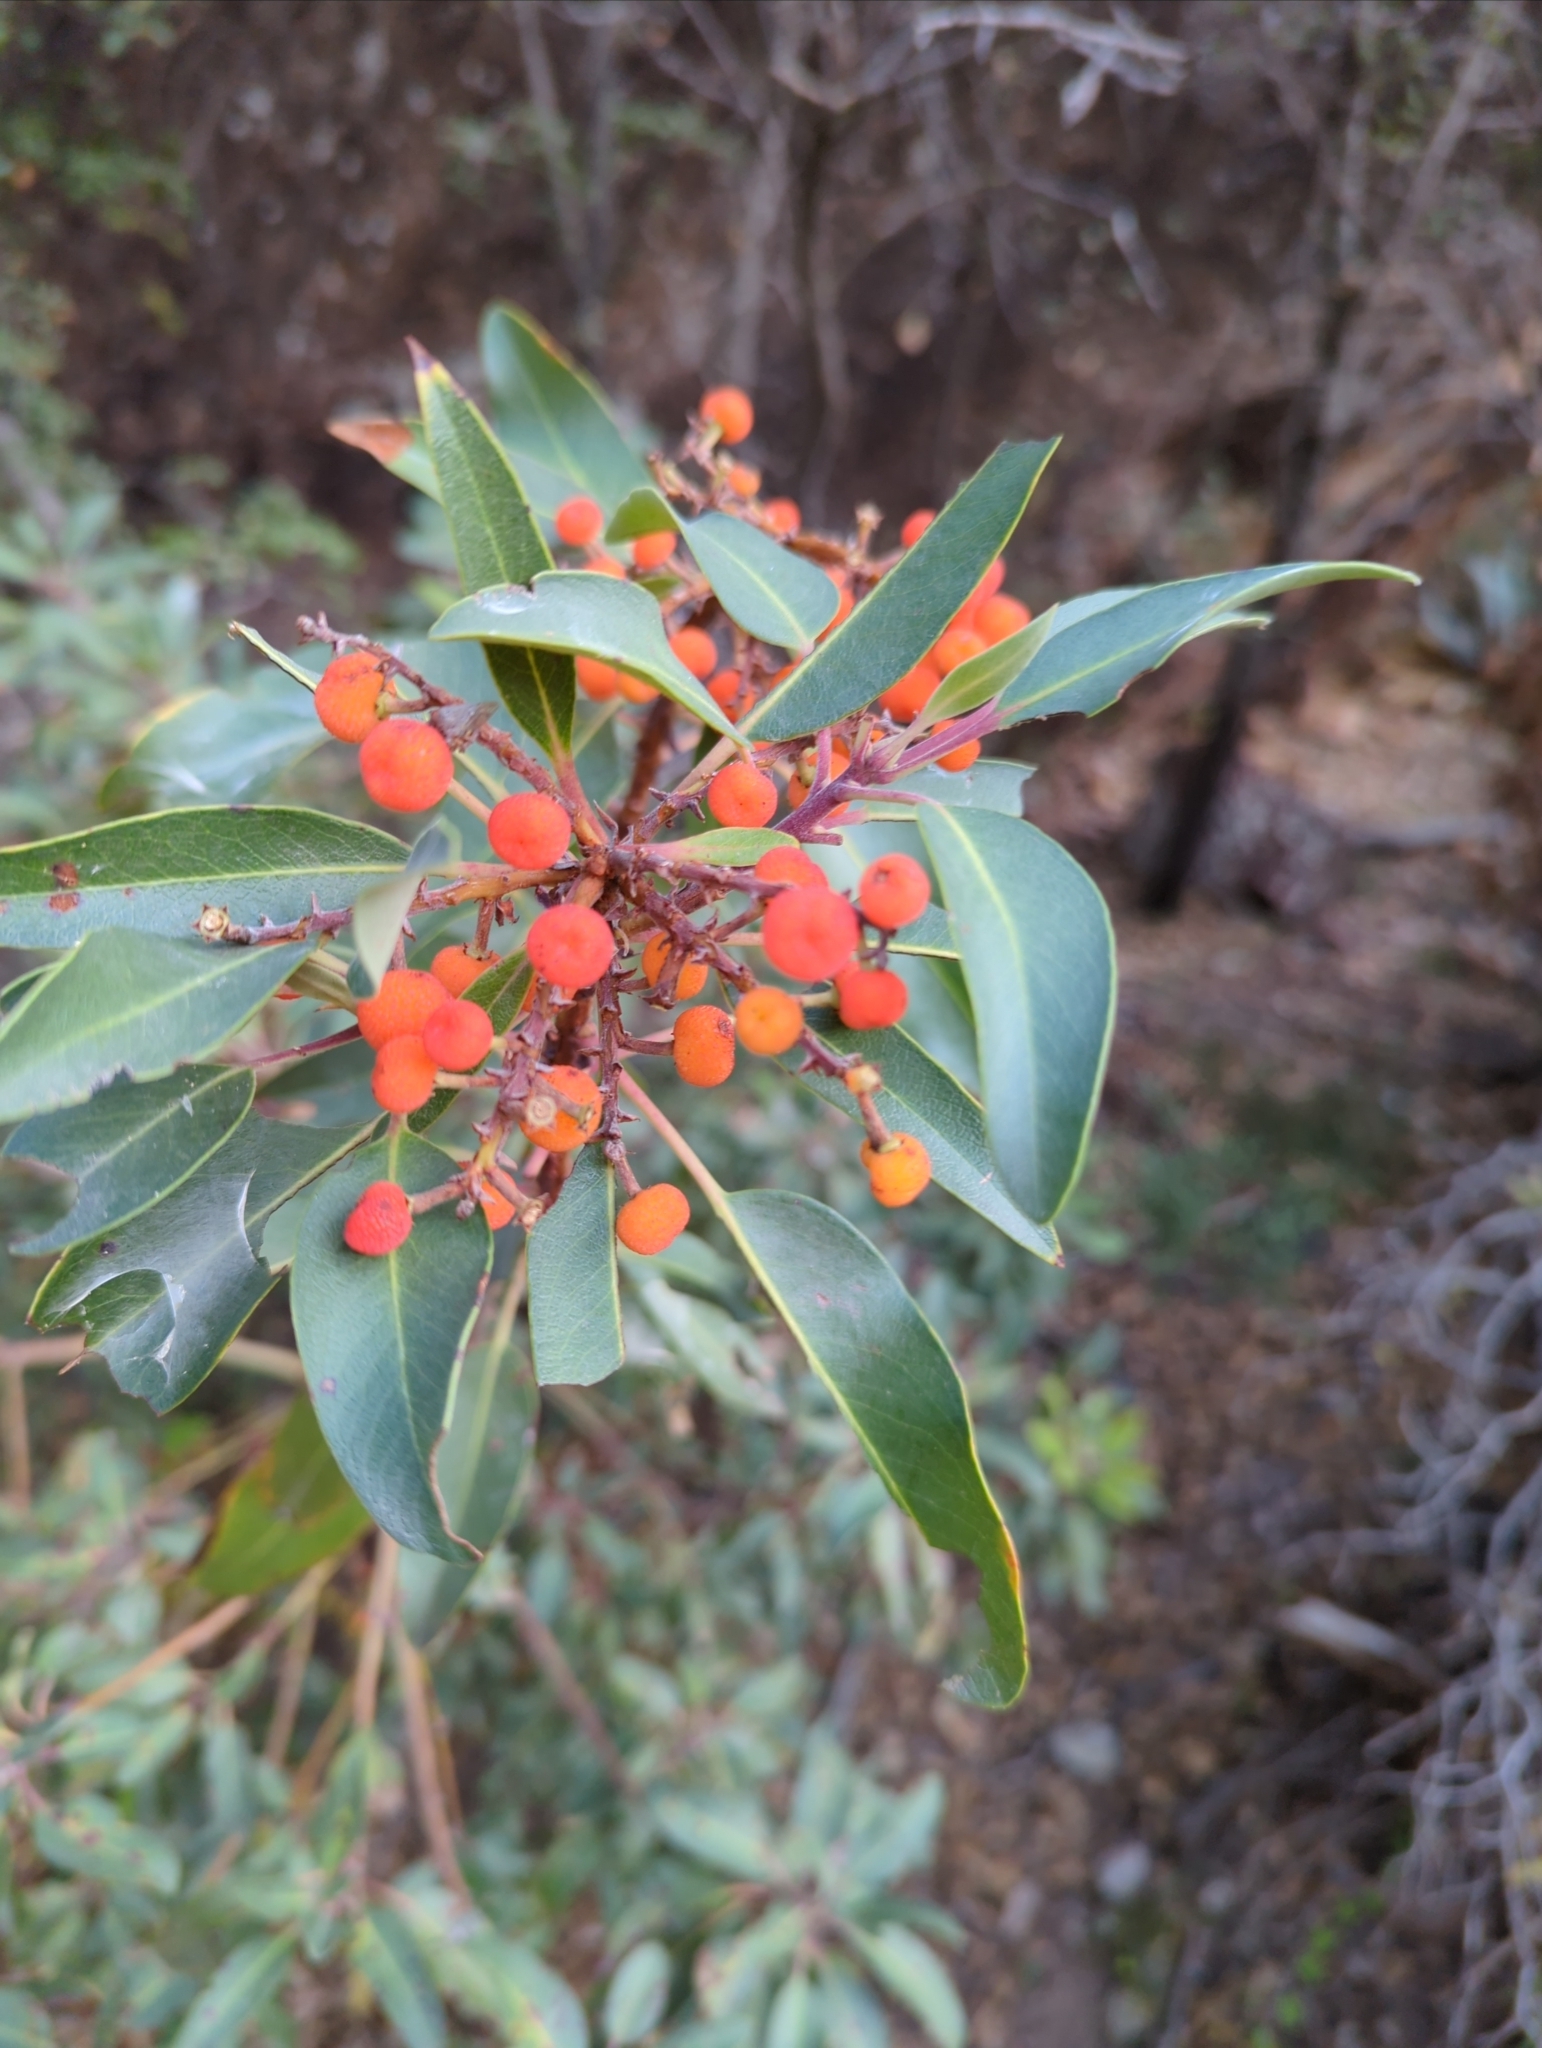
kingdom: Plantae
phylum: Tracheophyta
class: Magnoliopsida
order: Ericales
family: Ericaceae
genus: Arbutus
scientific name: Arbutus xalapensis
